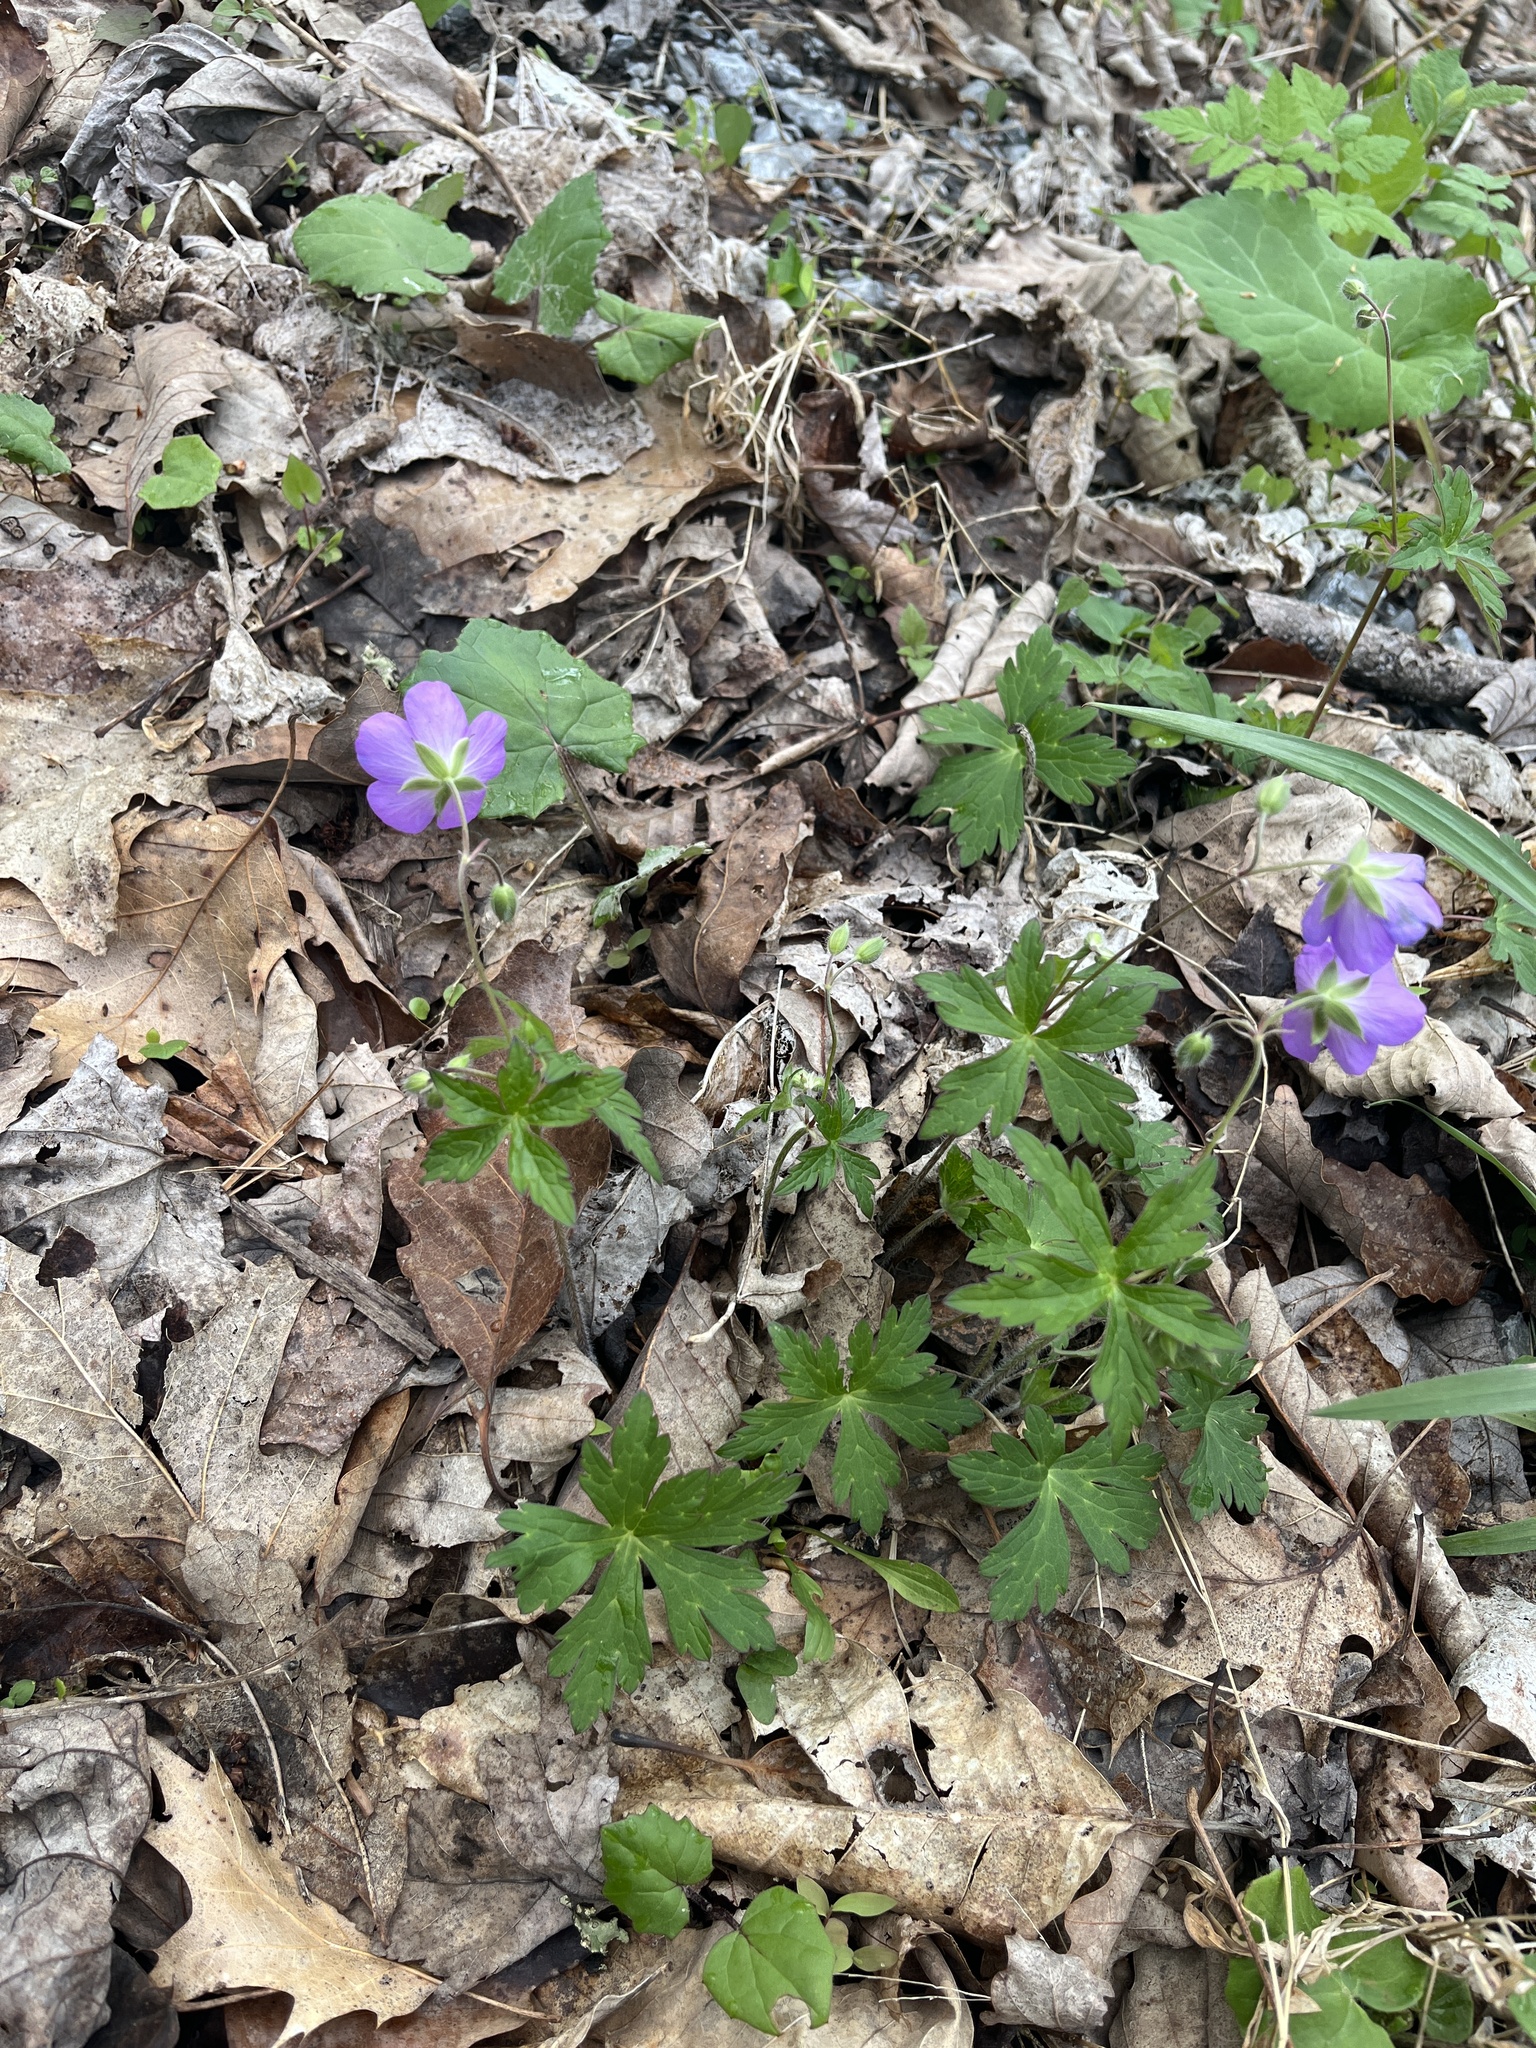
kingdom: Plantae
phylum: Tracheophyta
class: Magnoliopsida
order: Geraniales
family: Geraniaceae
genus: Geranium
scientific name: Geranium maculatum
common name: Spotted geranium
